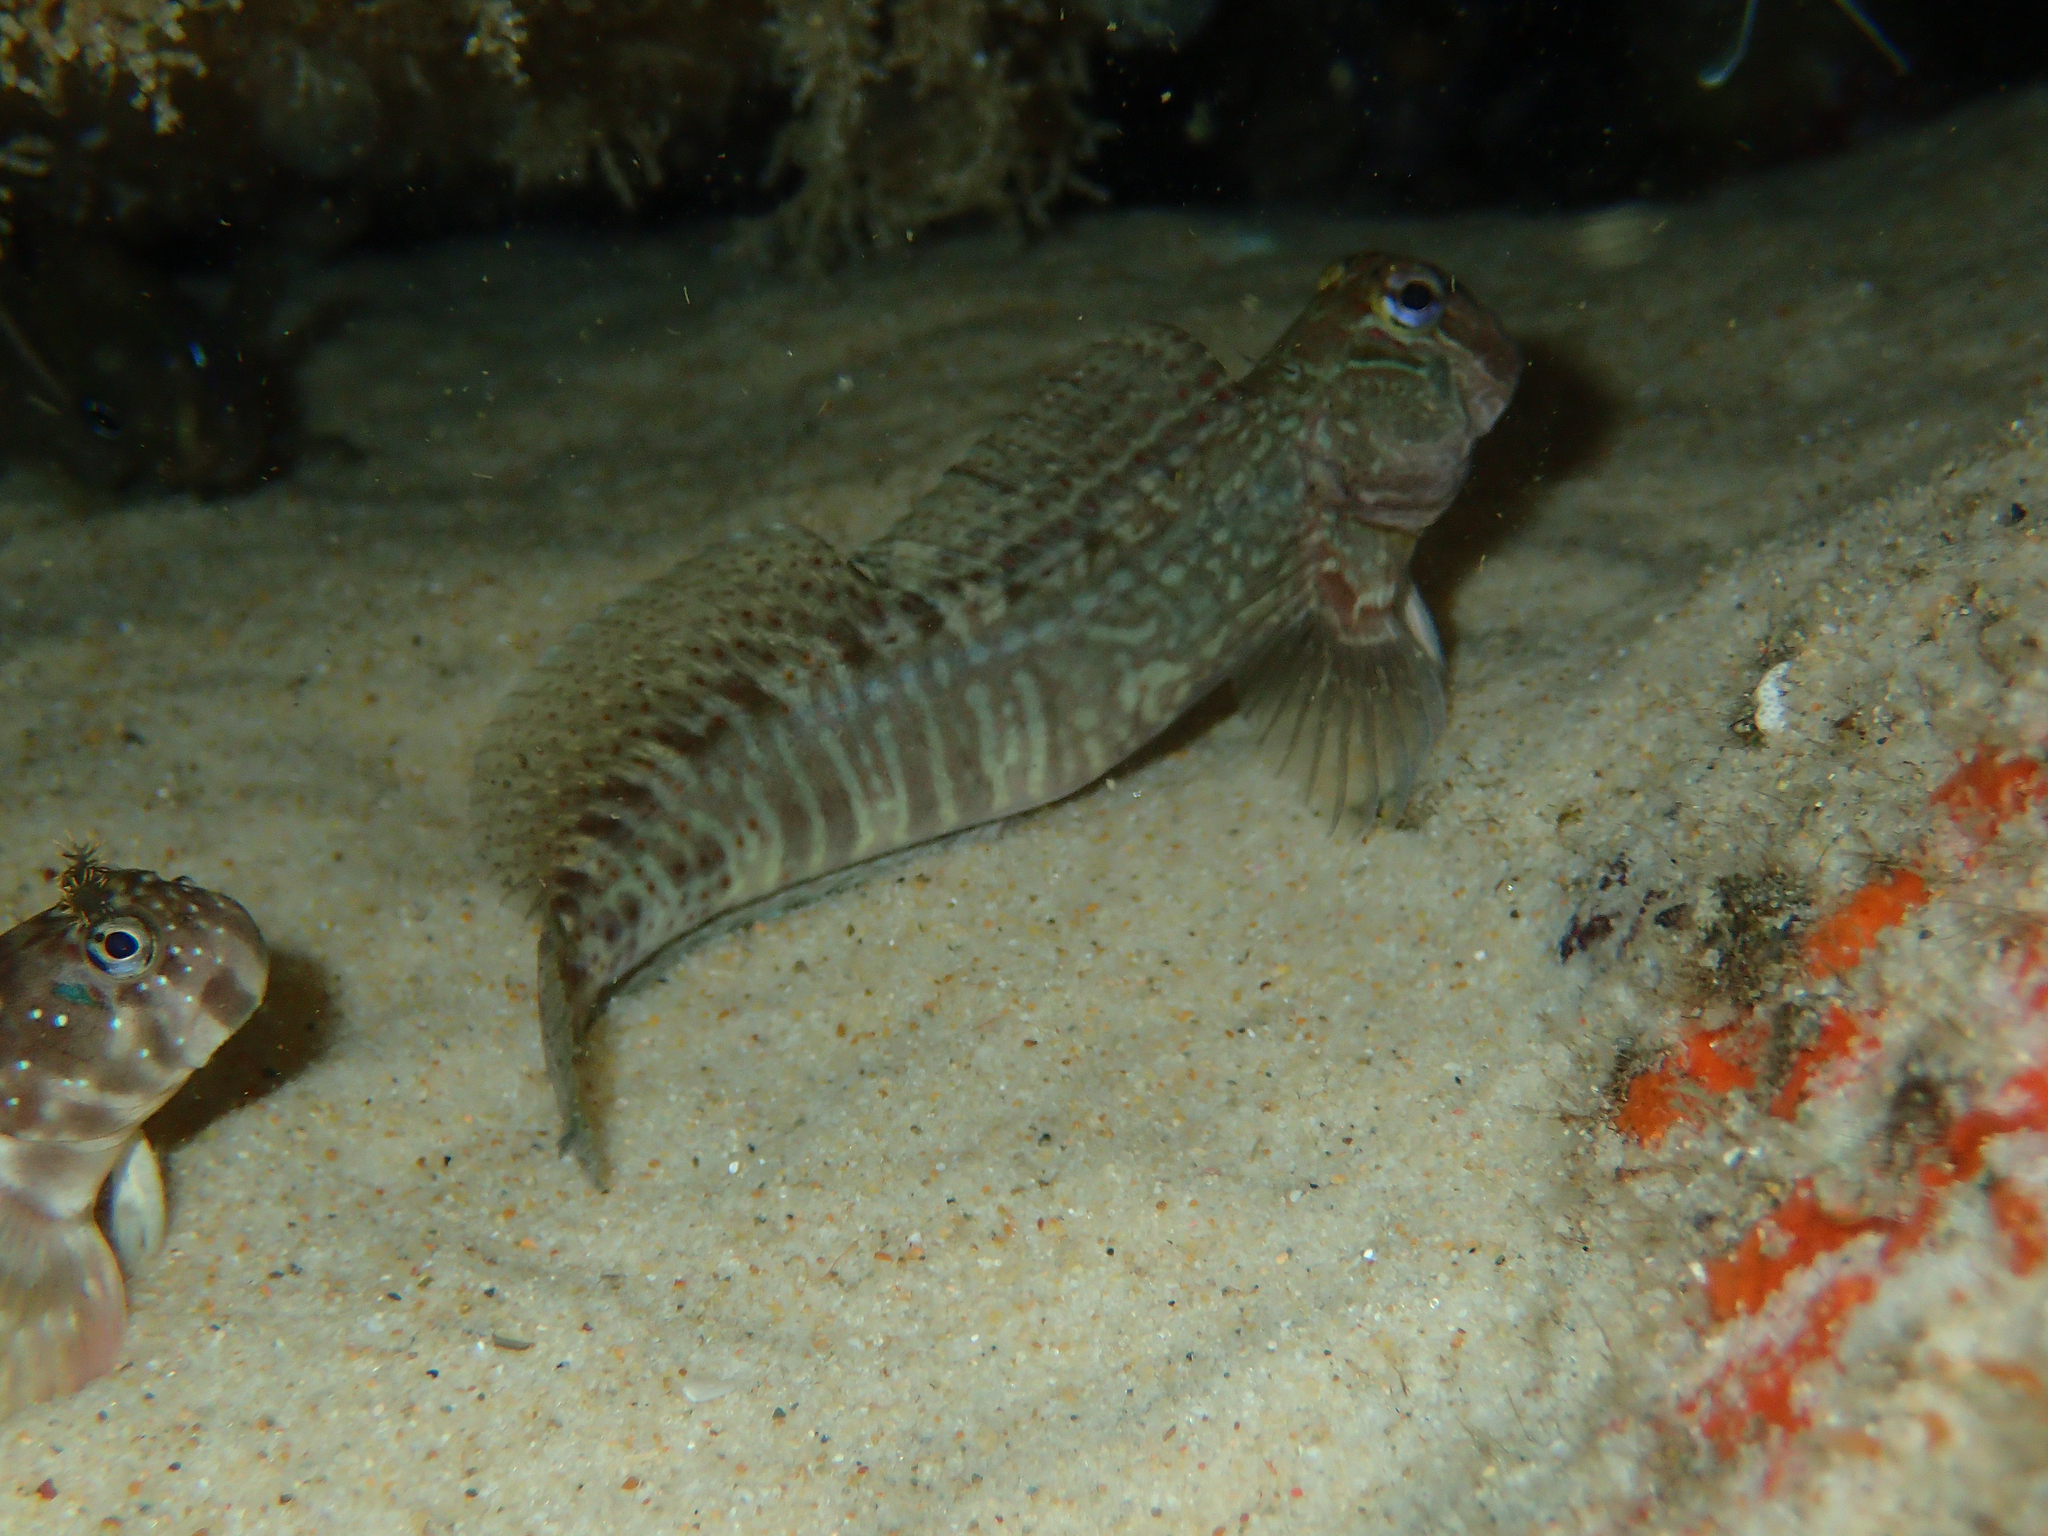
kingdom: Animalia
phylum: Chordata
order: Perciformes
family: Blenniidae
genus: Istiblennius
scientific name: Istiblennius edentulus
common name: Rippled rockskipper
